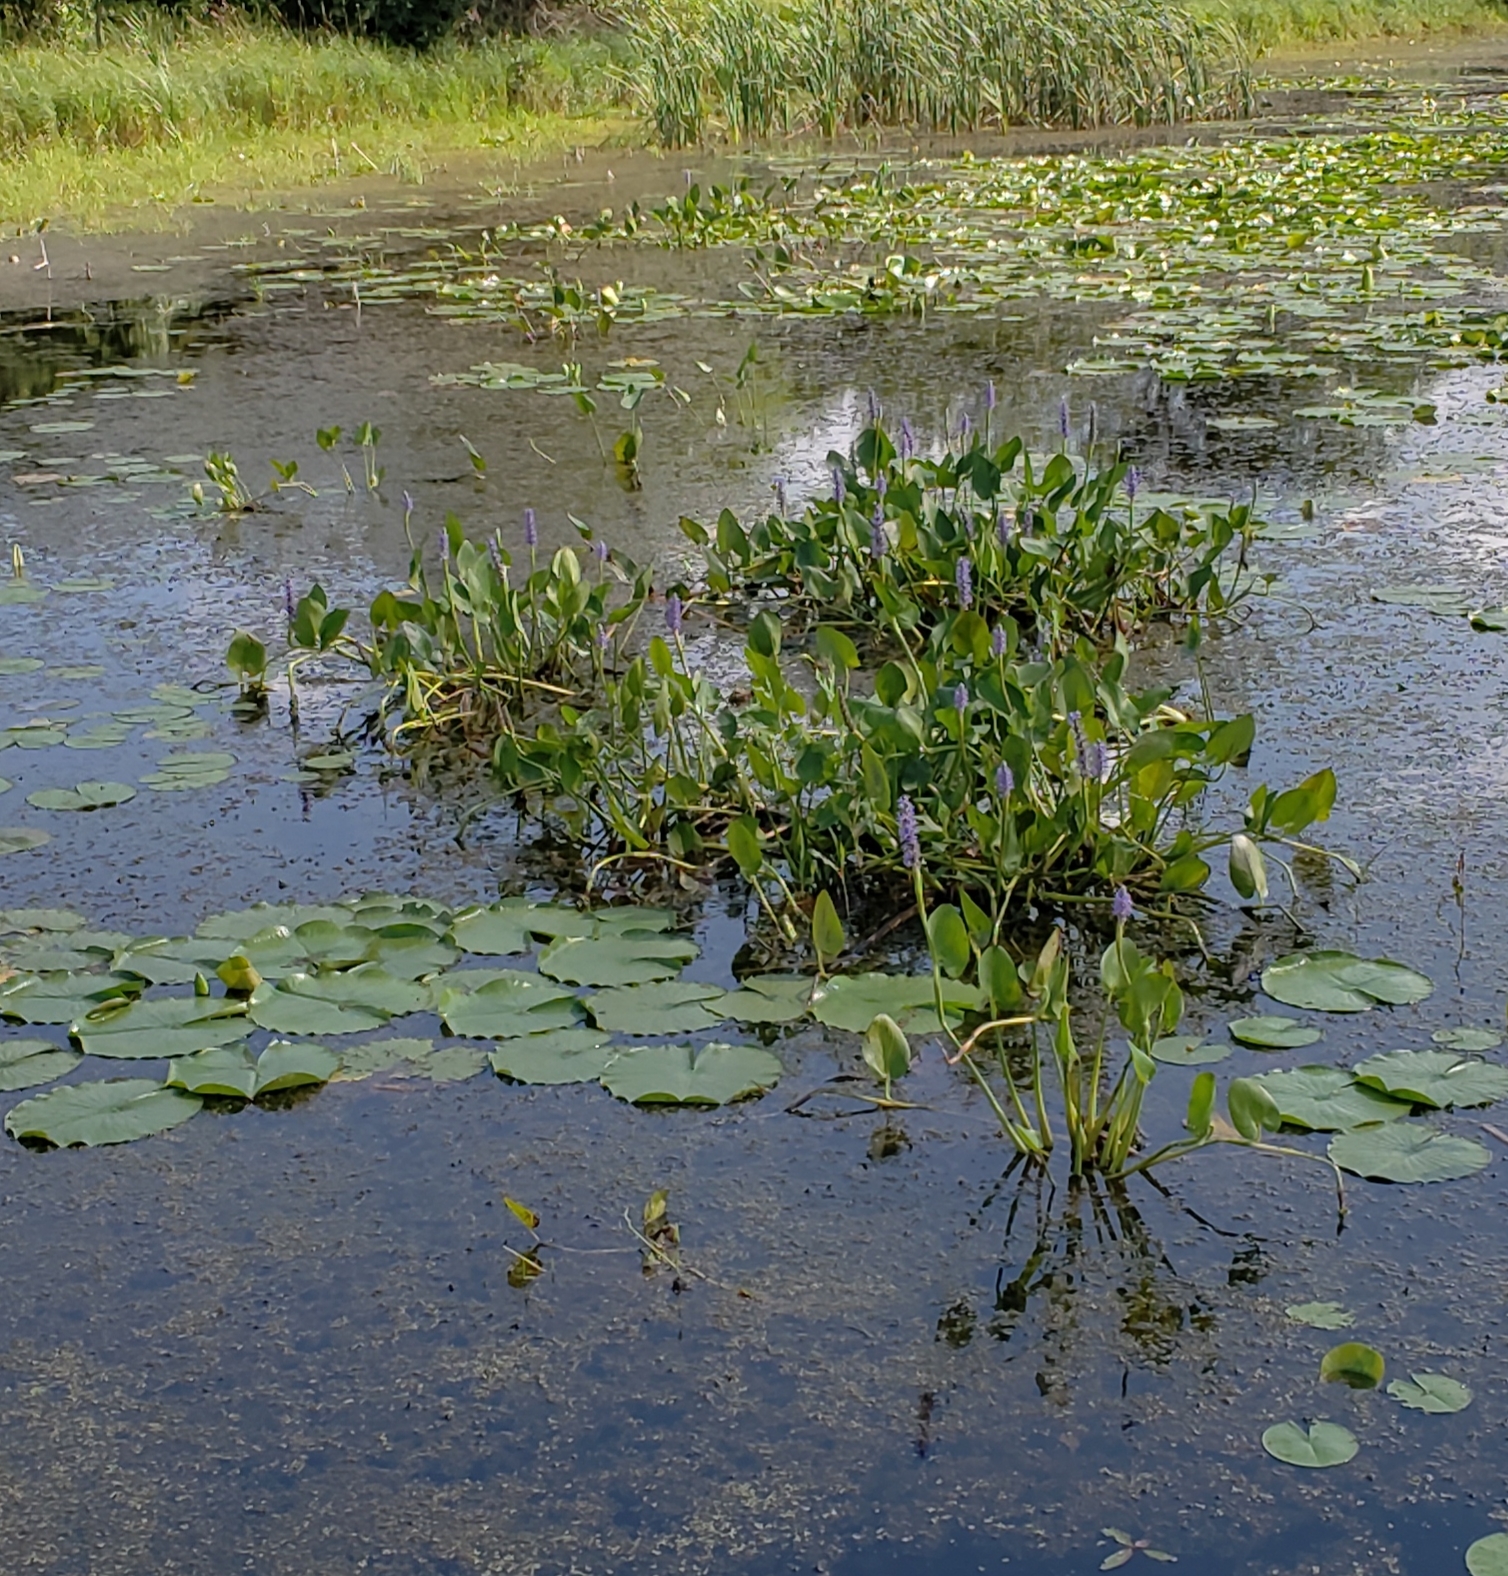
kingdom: Plantae
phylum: Tracheophyta
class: Liliopsida
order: Commelinales
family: Pontederiaceae
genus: Pontederia
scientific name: Pontederia cordata
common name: Pickerelweed
